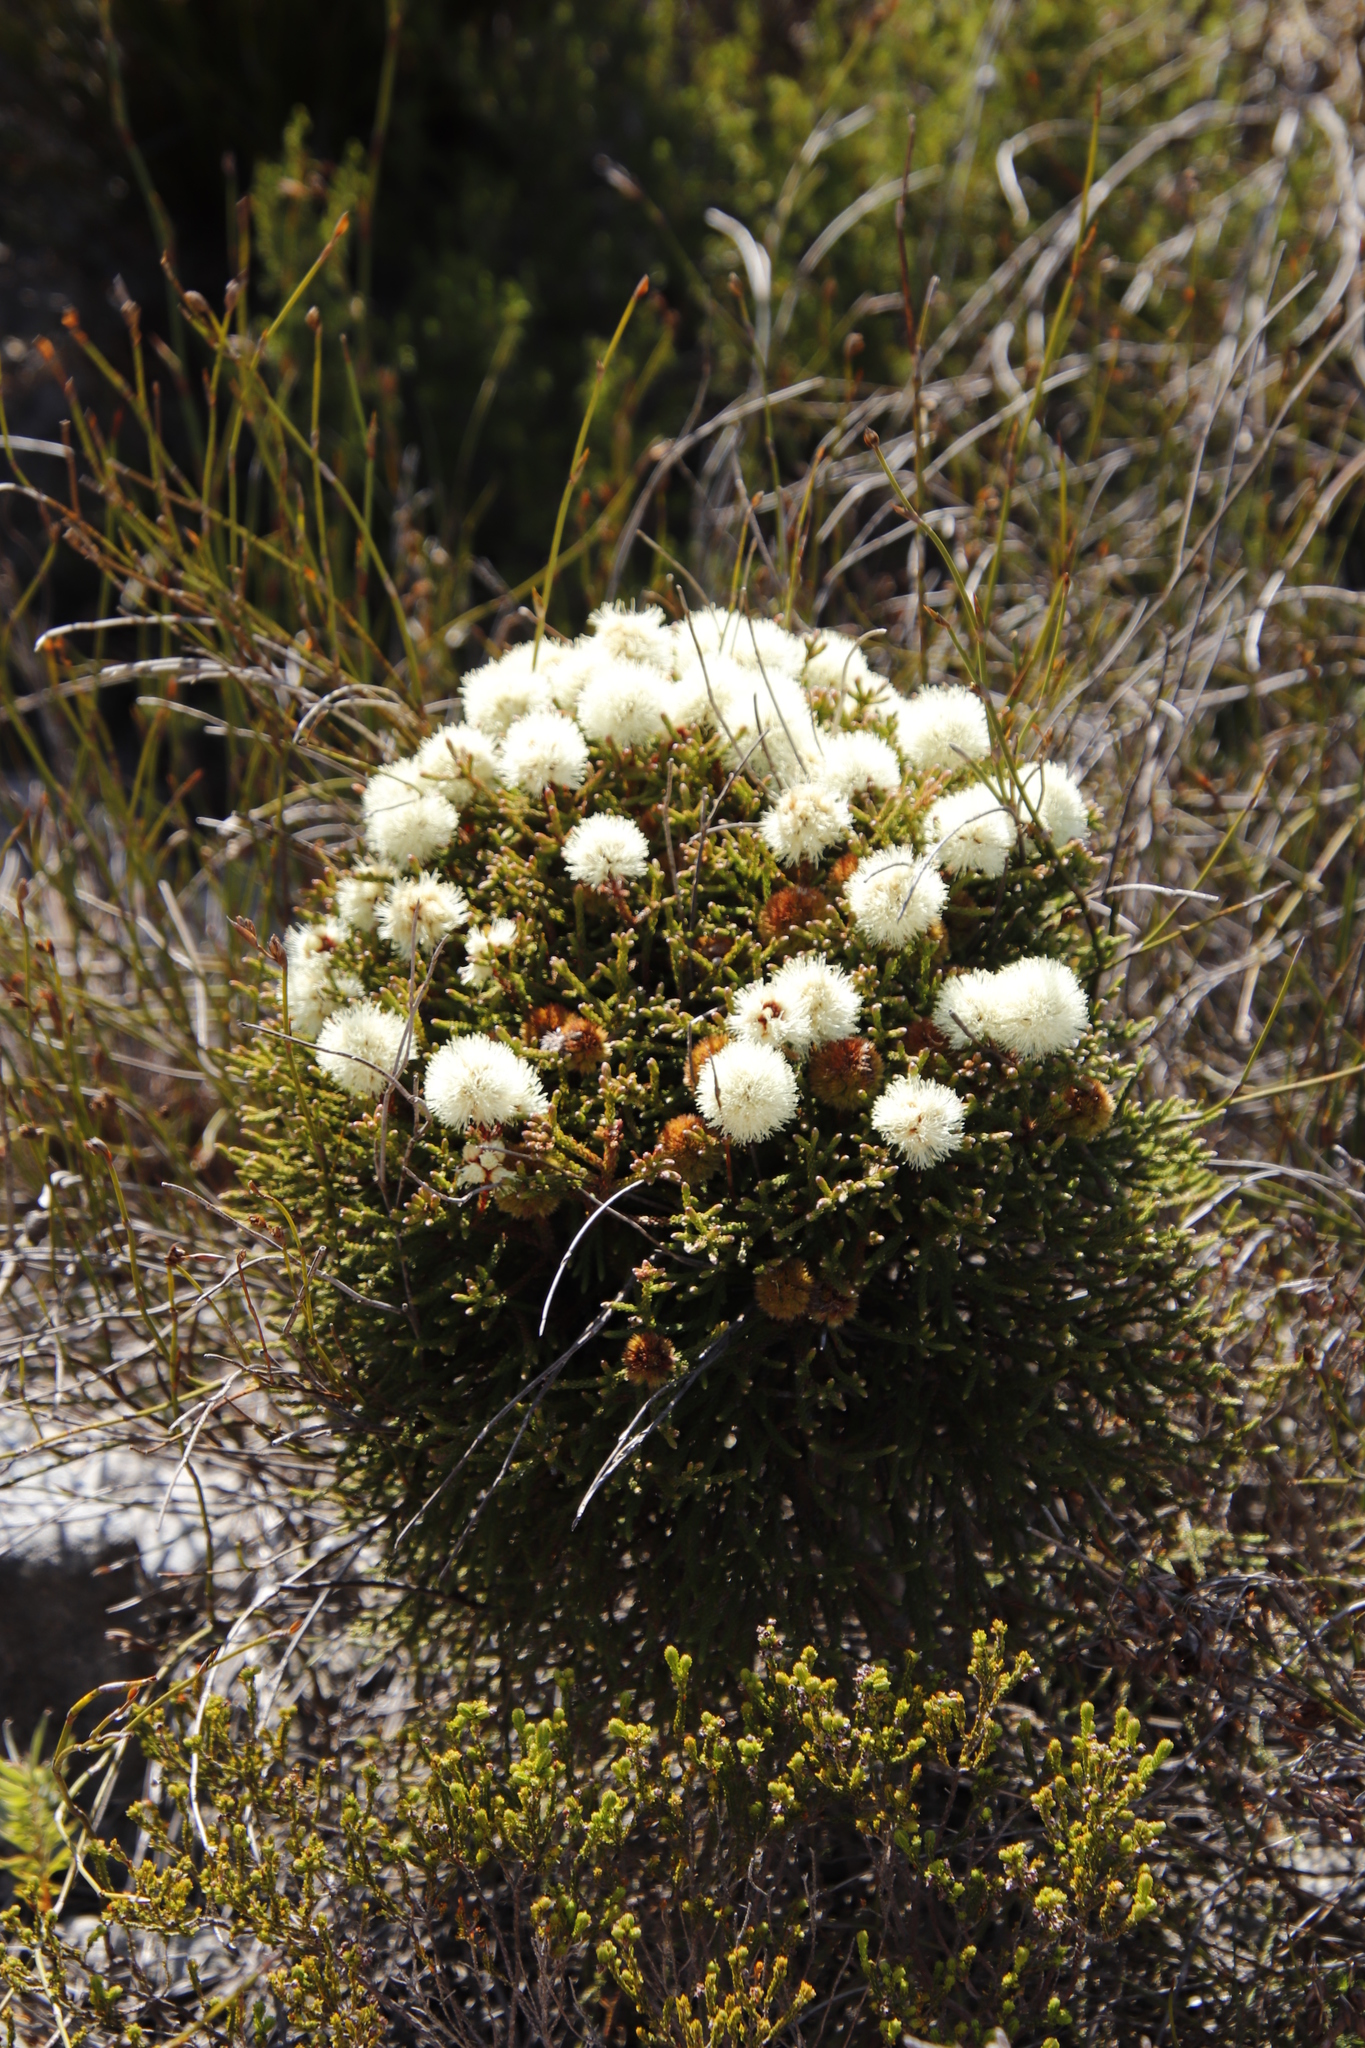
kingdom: Plantae
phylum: Tracheophyta
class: Magnoliopsida
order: Bruniales
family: Bruniaceae
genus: Brunia
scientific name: Brunia fragarioides
